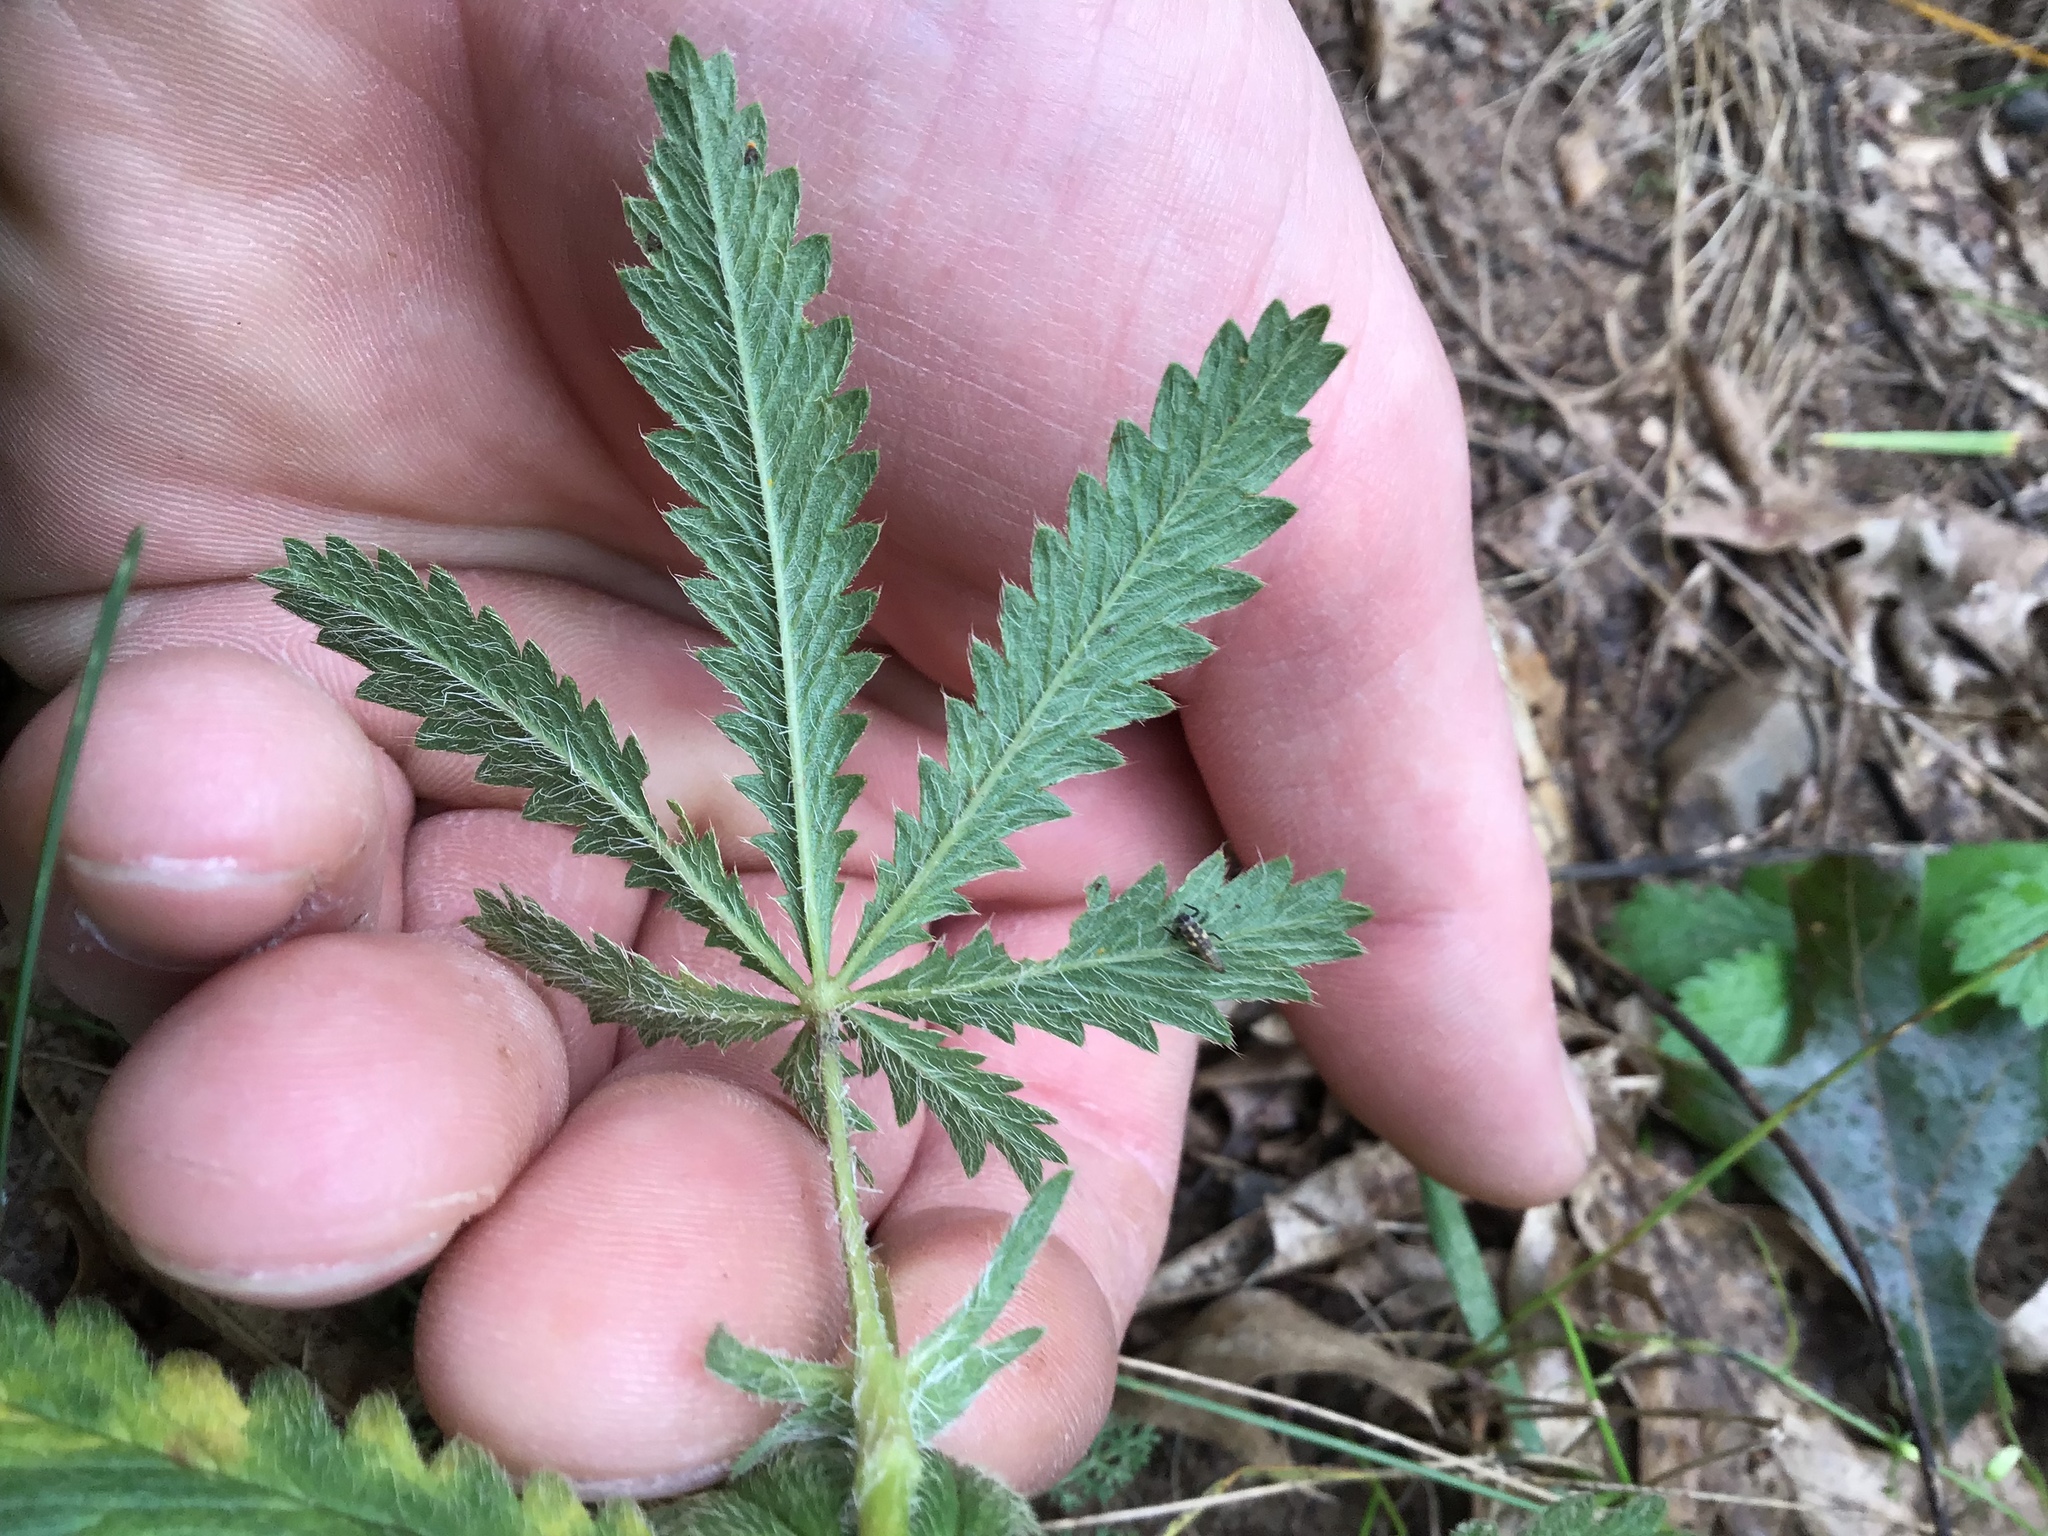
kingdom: Plantae
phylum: Tracheophyta
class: Magnoliopsida
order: Rosales
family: Rosaceae
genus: Potentilla
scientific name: Potentilla recta
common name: Sulphur cinquefoil
